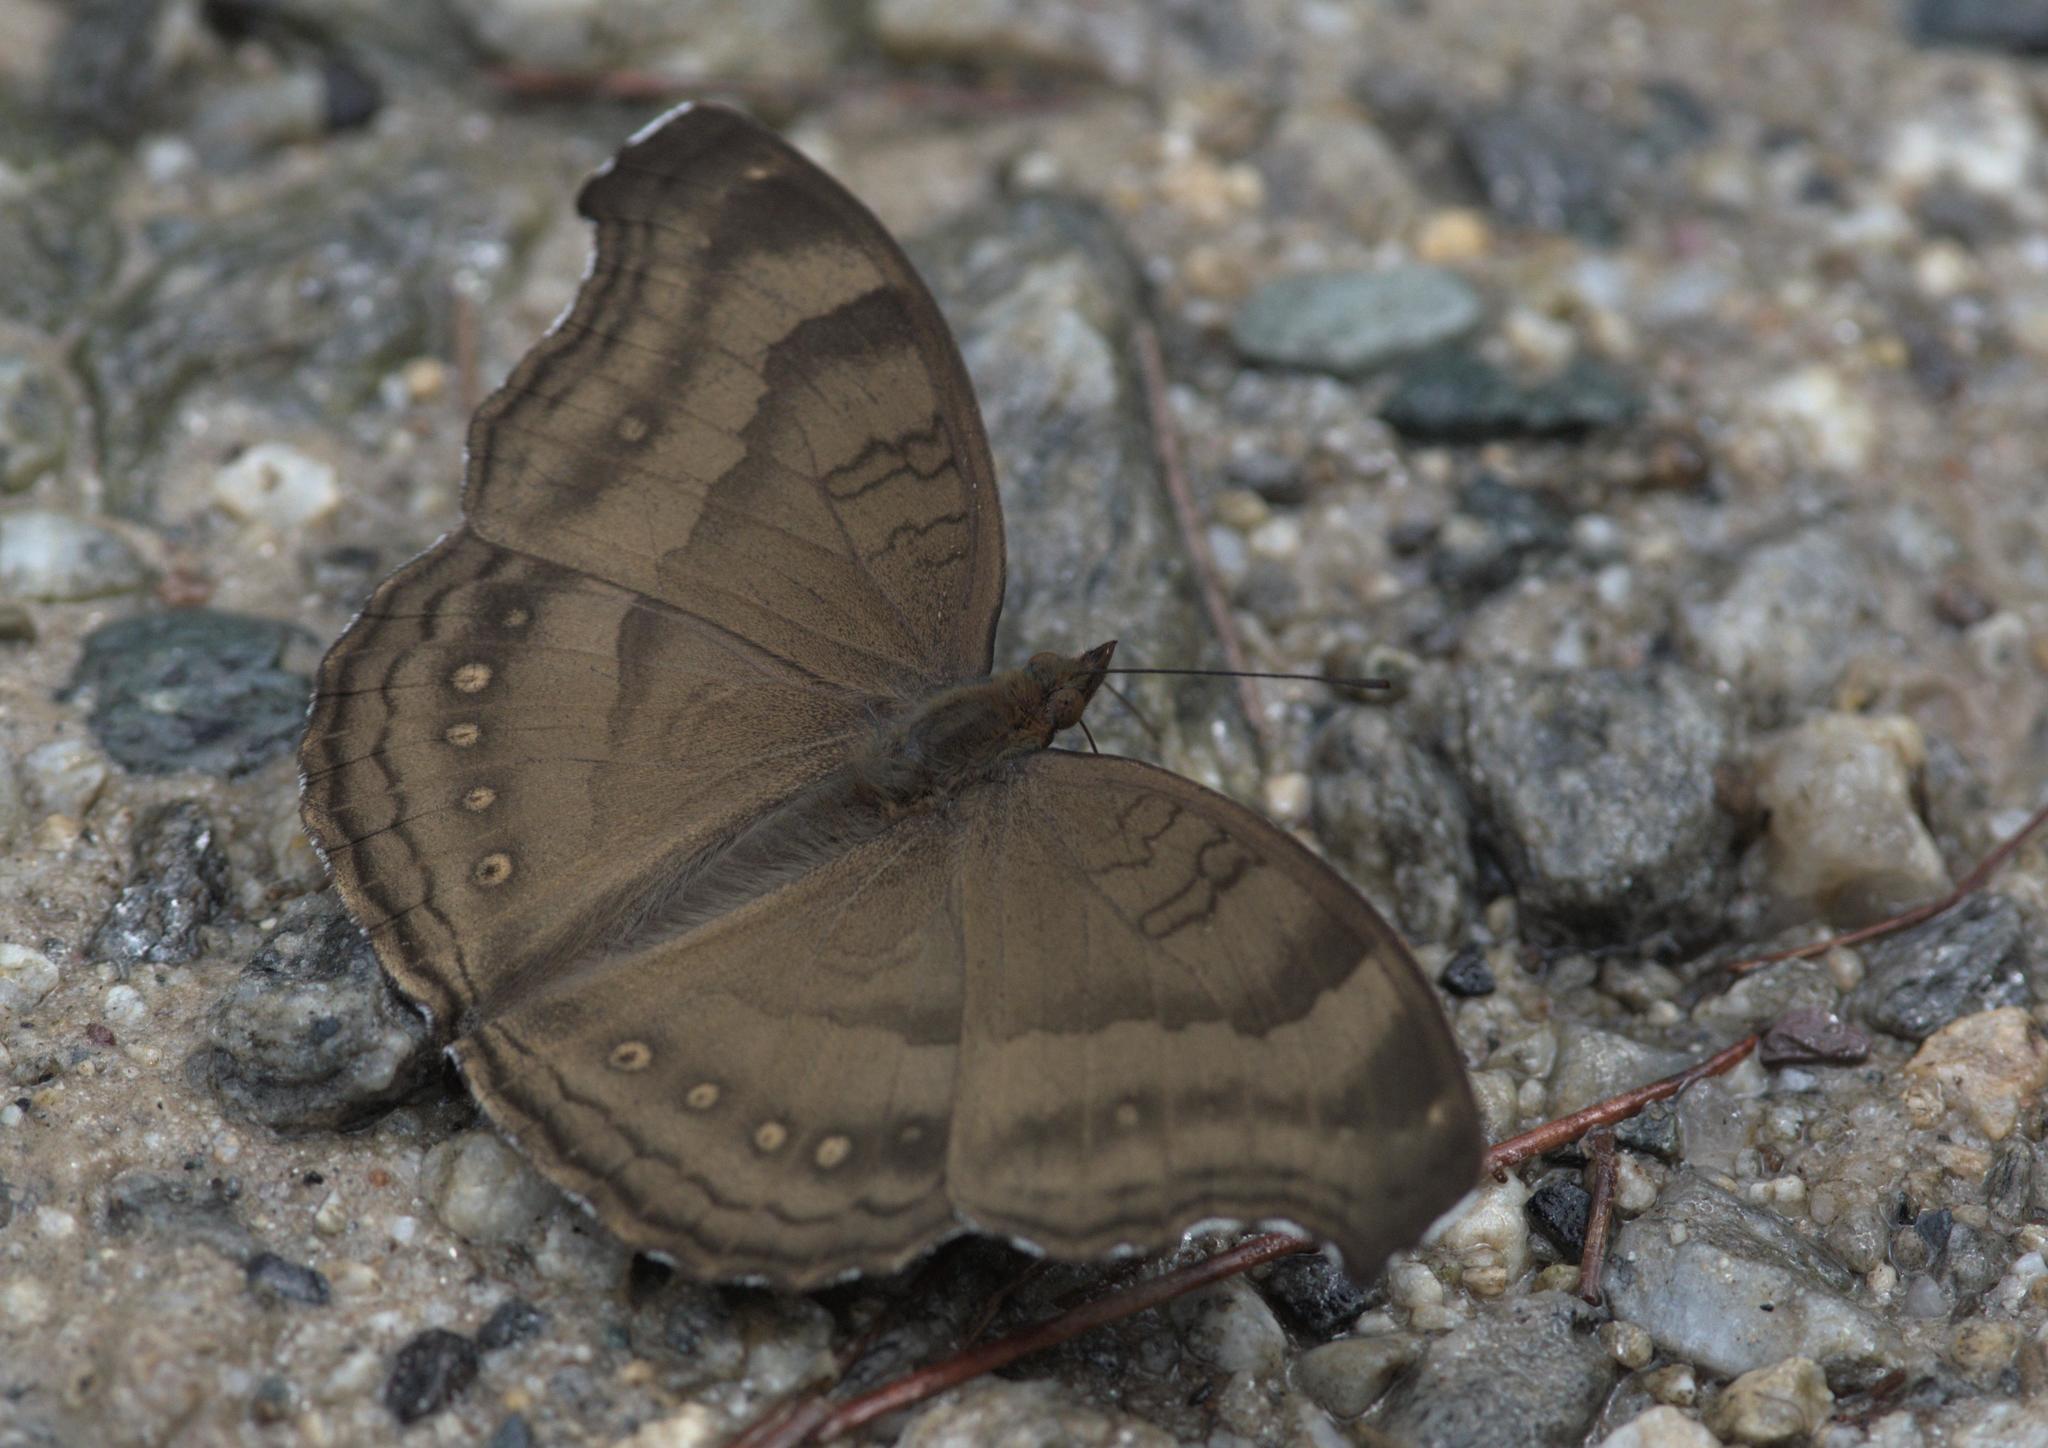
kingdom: Animalia
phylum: Arthropoda
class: Insecta
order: Lepidoptera
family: Nymphalidae
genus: Junonia
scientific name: Junonia iphita
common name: Chocolate pansy
